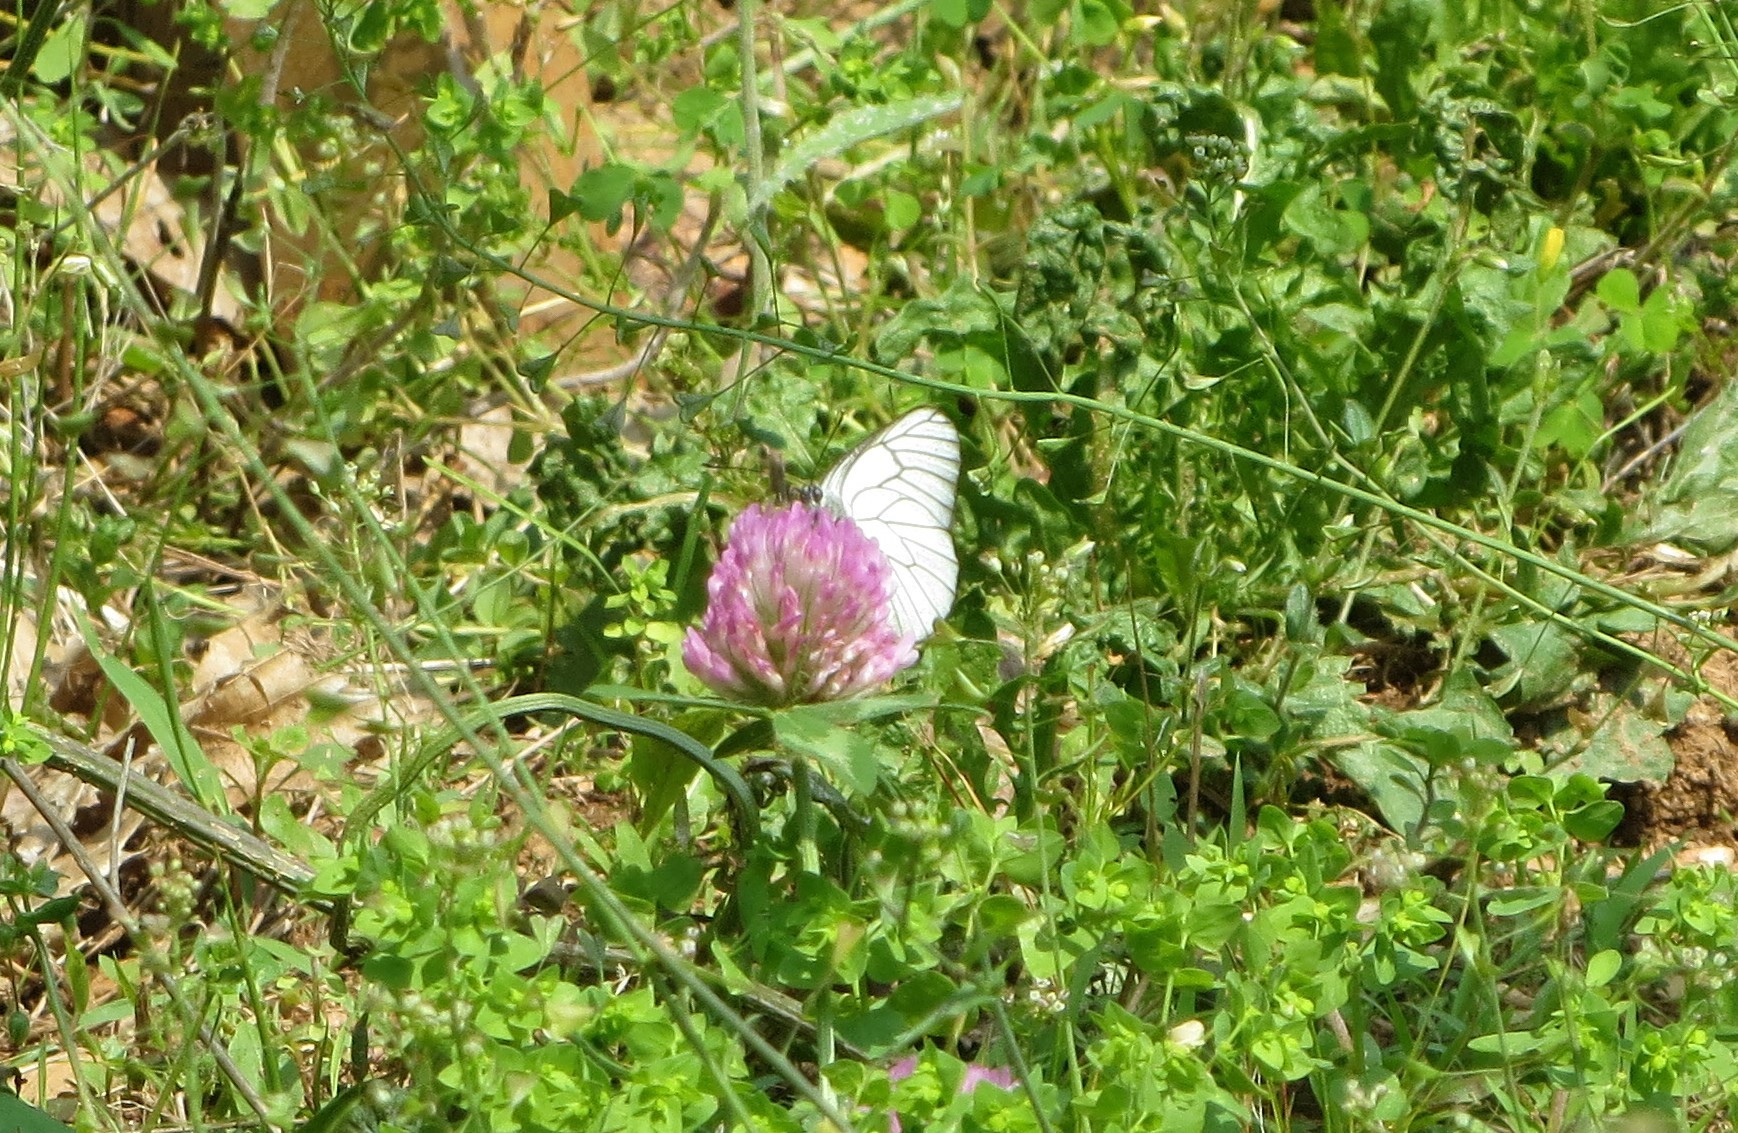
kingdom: Animalia
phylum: Arthropoda
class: Insecta
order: Lepidoptera
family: Pieridae
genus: Aporia
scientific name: Aporia crataegi
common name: Black-veined white
